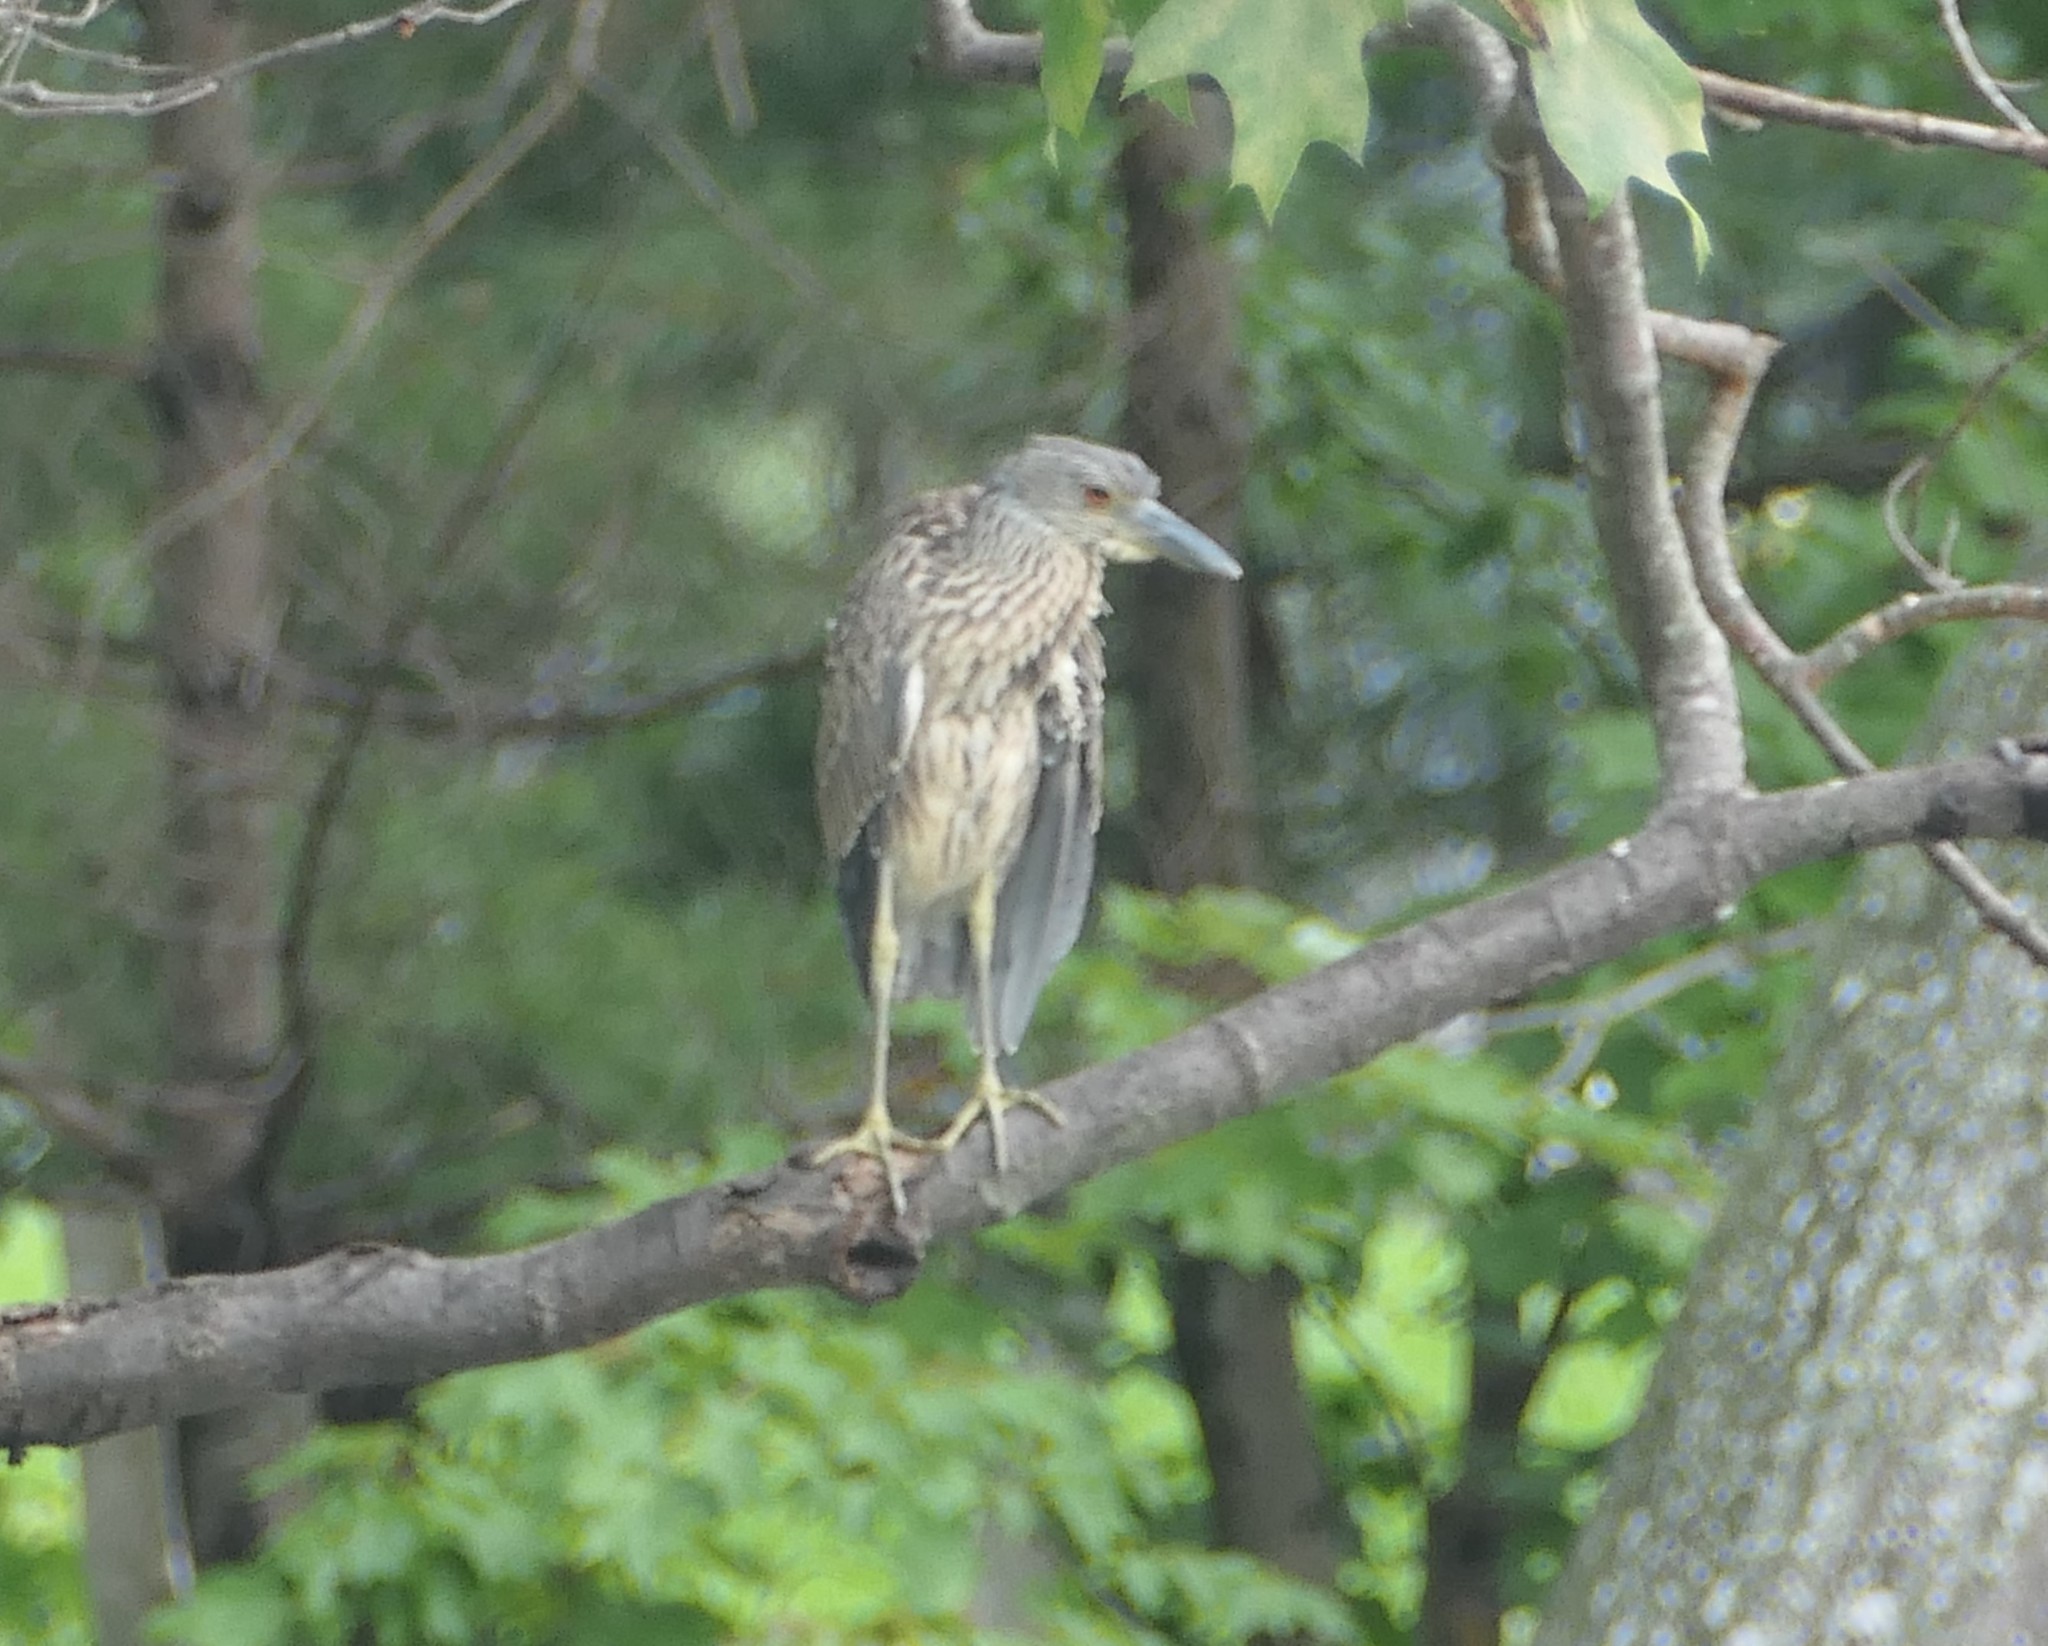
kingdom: Animalia
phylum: Chordata
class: Aves
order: Pelecaniformes
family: Ardeidae
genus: Nyctanassa
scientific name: Nyctanassa violacea
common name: Yellow-crowned night heron
